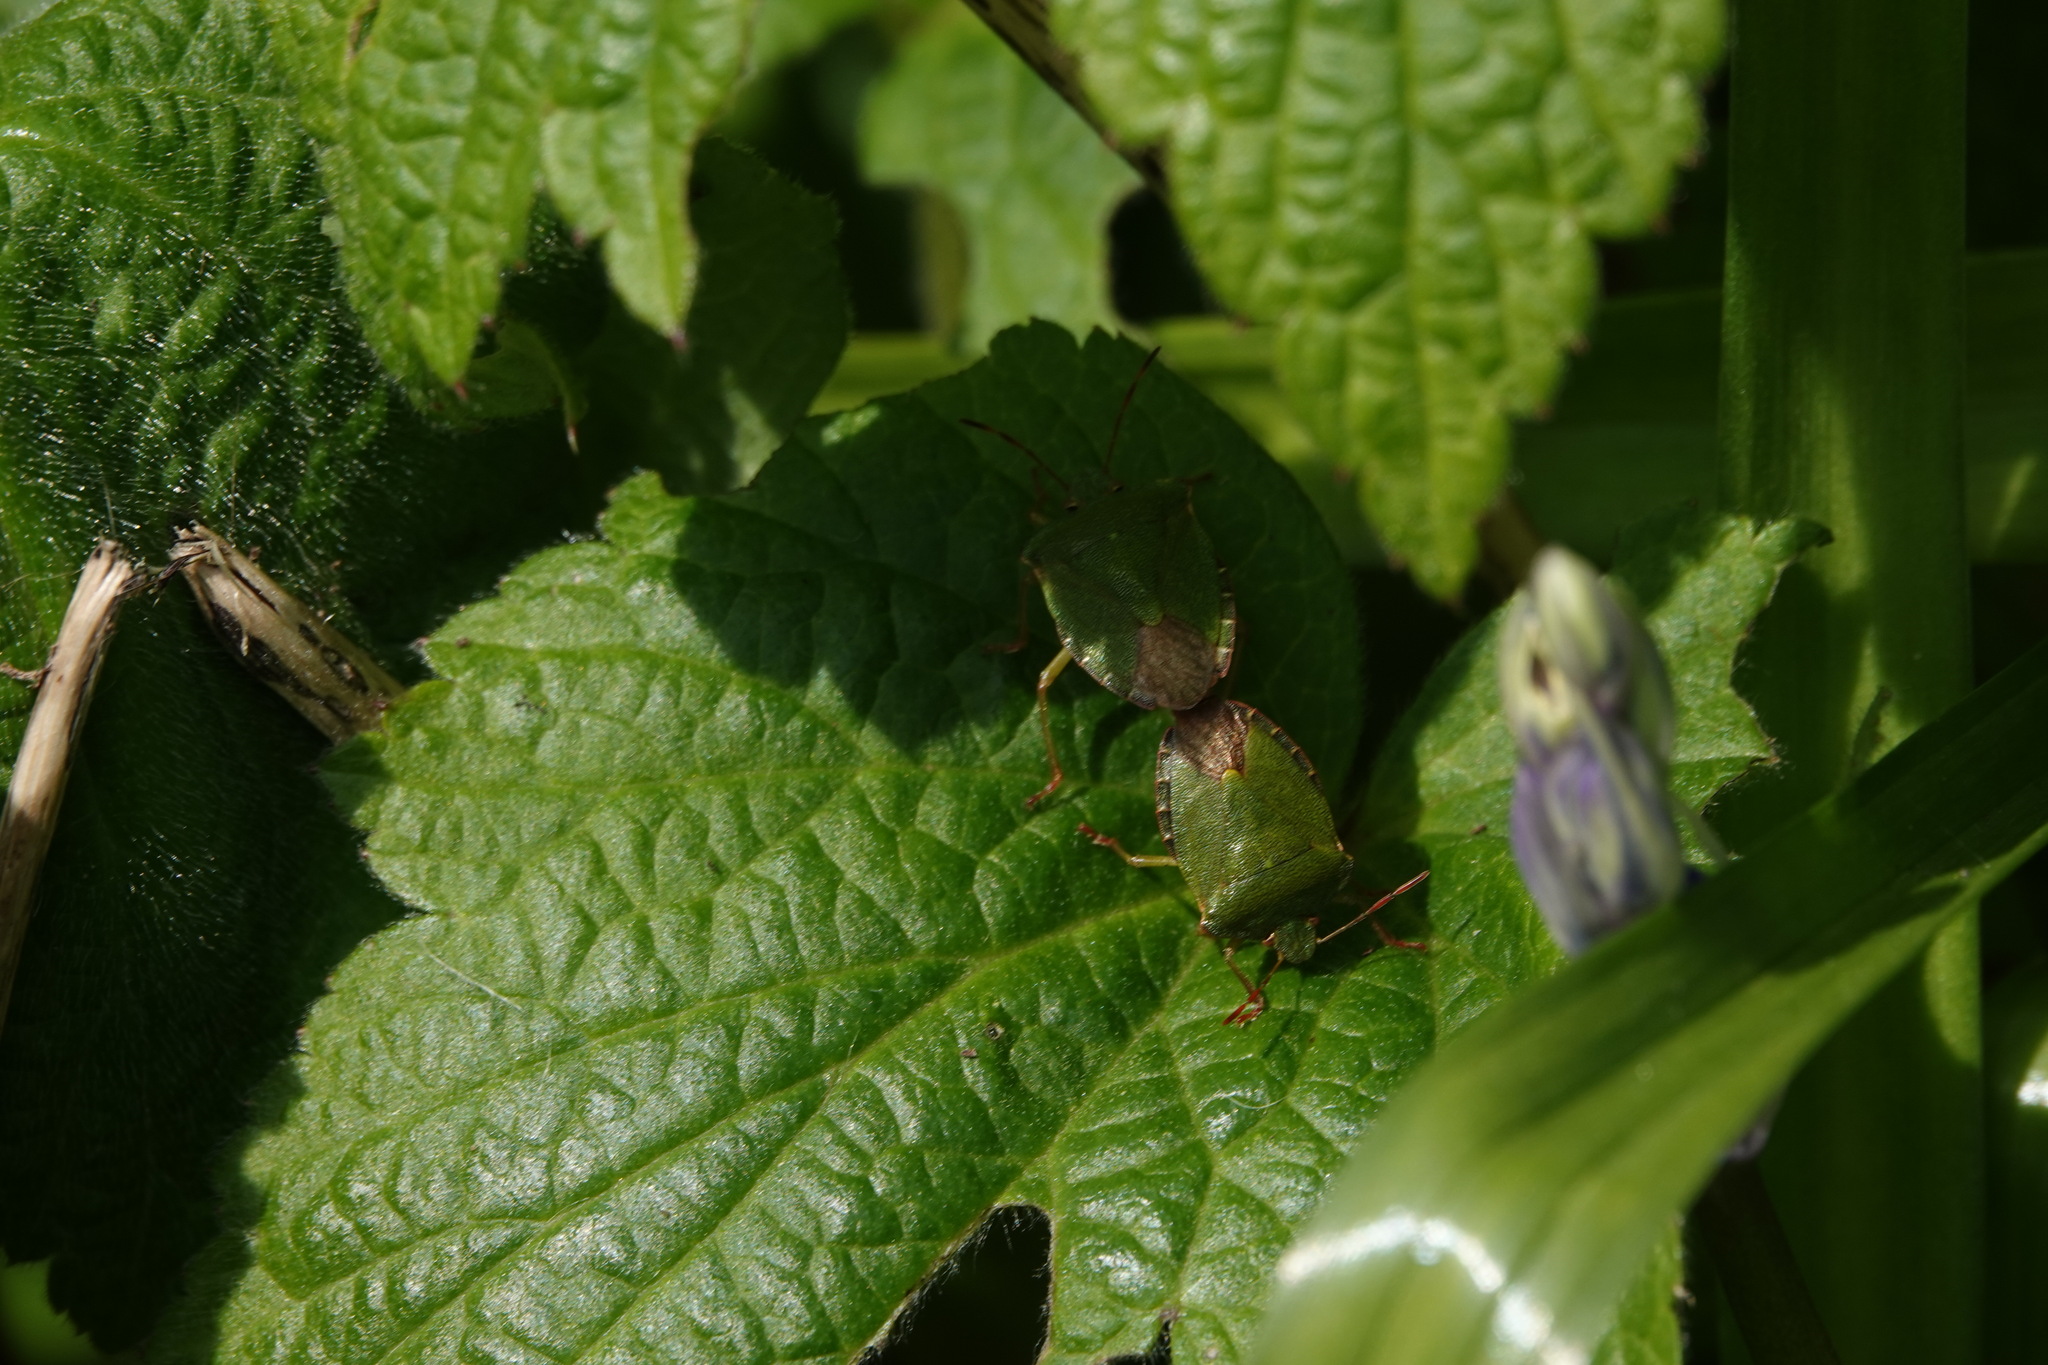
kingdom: Animalia
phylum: Arthropoda
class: Insecta
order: Hemiptera
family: Pentatomidae
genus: Palomena
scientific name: Palomena prasina
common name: Green shieldbug
